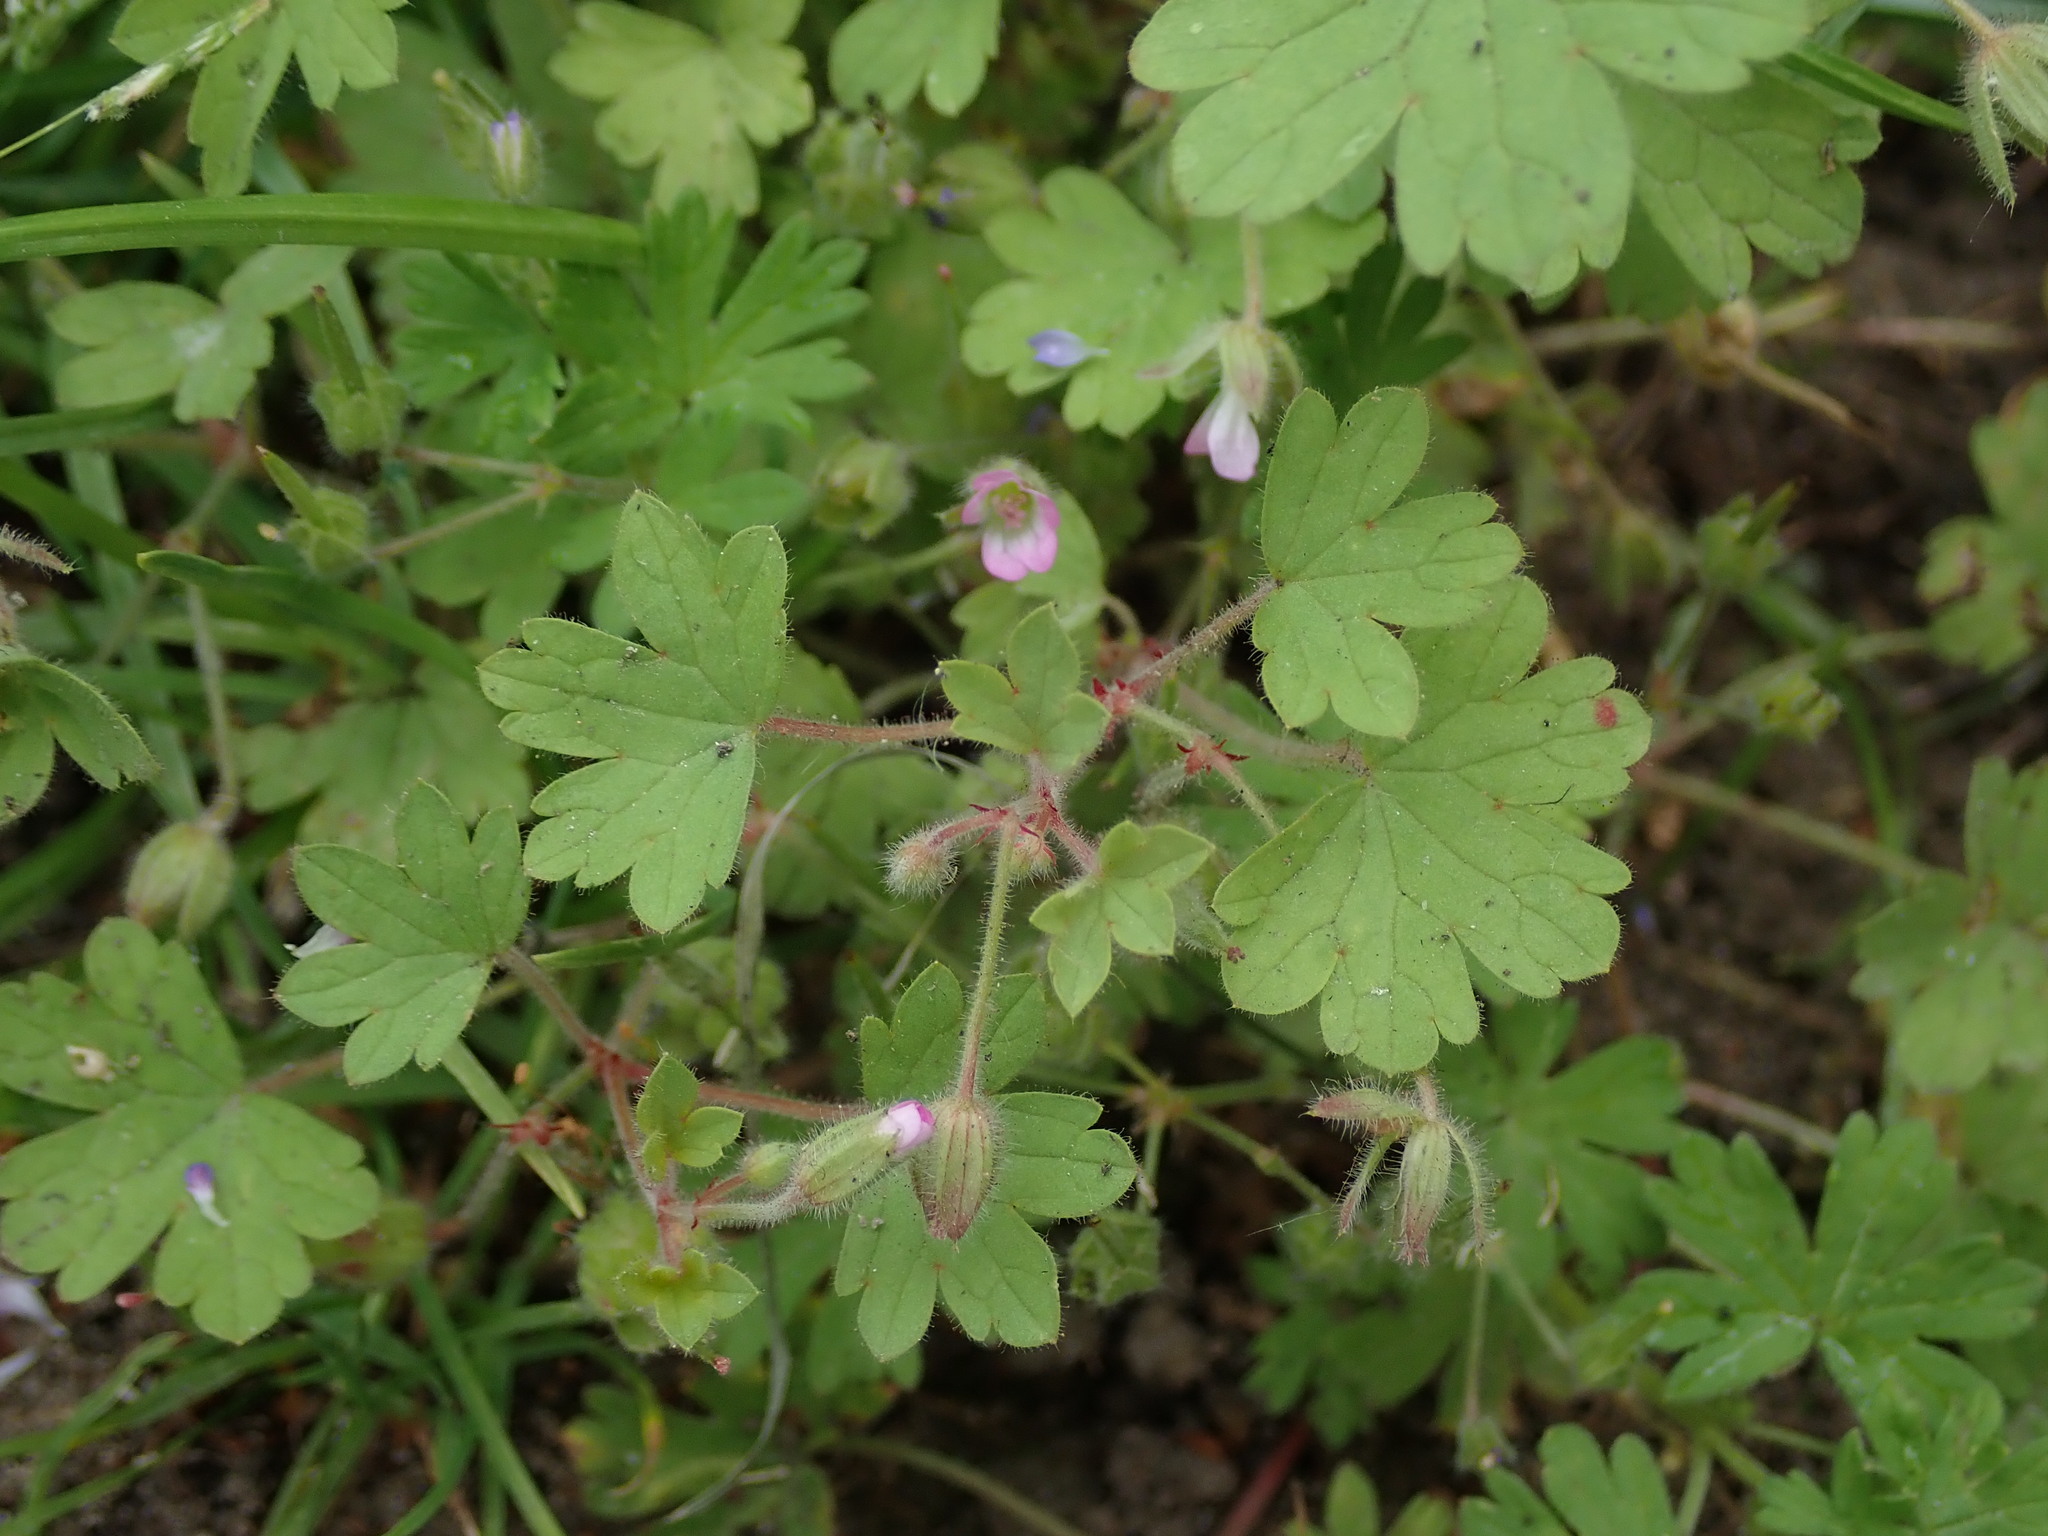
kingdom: Plantae
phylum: Tracheophyta
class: Magnoliopsida
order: Geraniales
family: Geraniaceae
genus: Geranium
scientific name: Geranium rotundifolium
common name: Round-leaved crane's-bill
